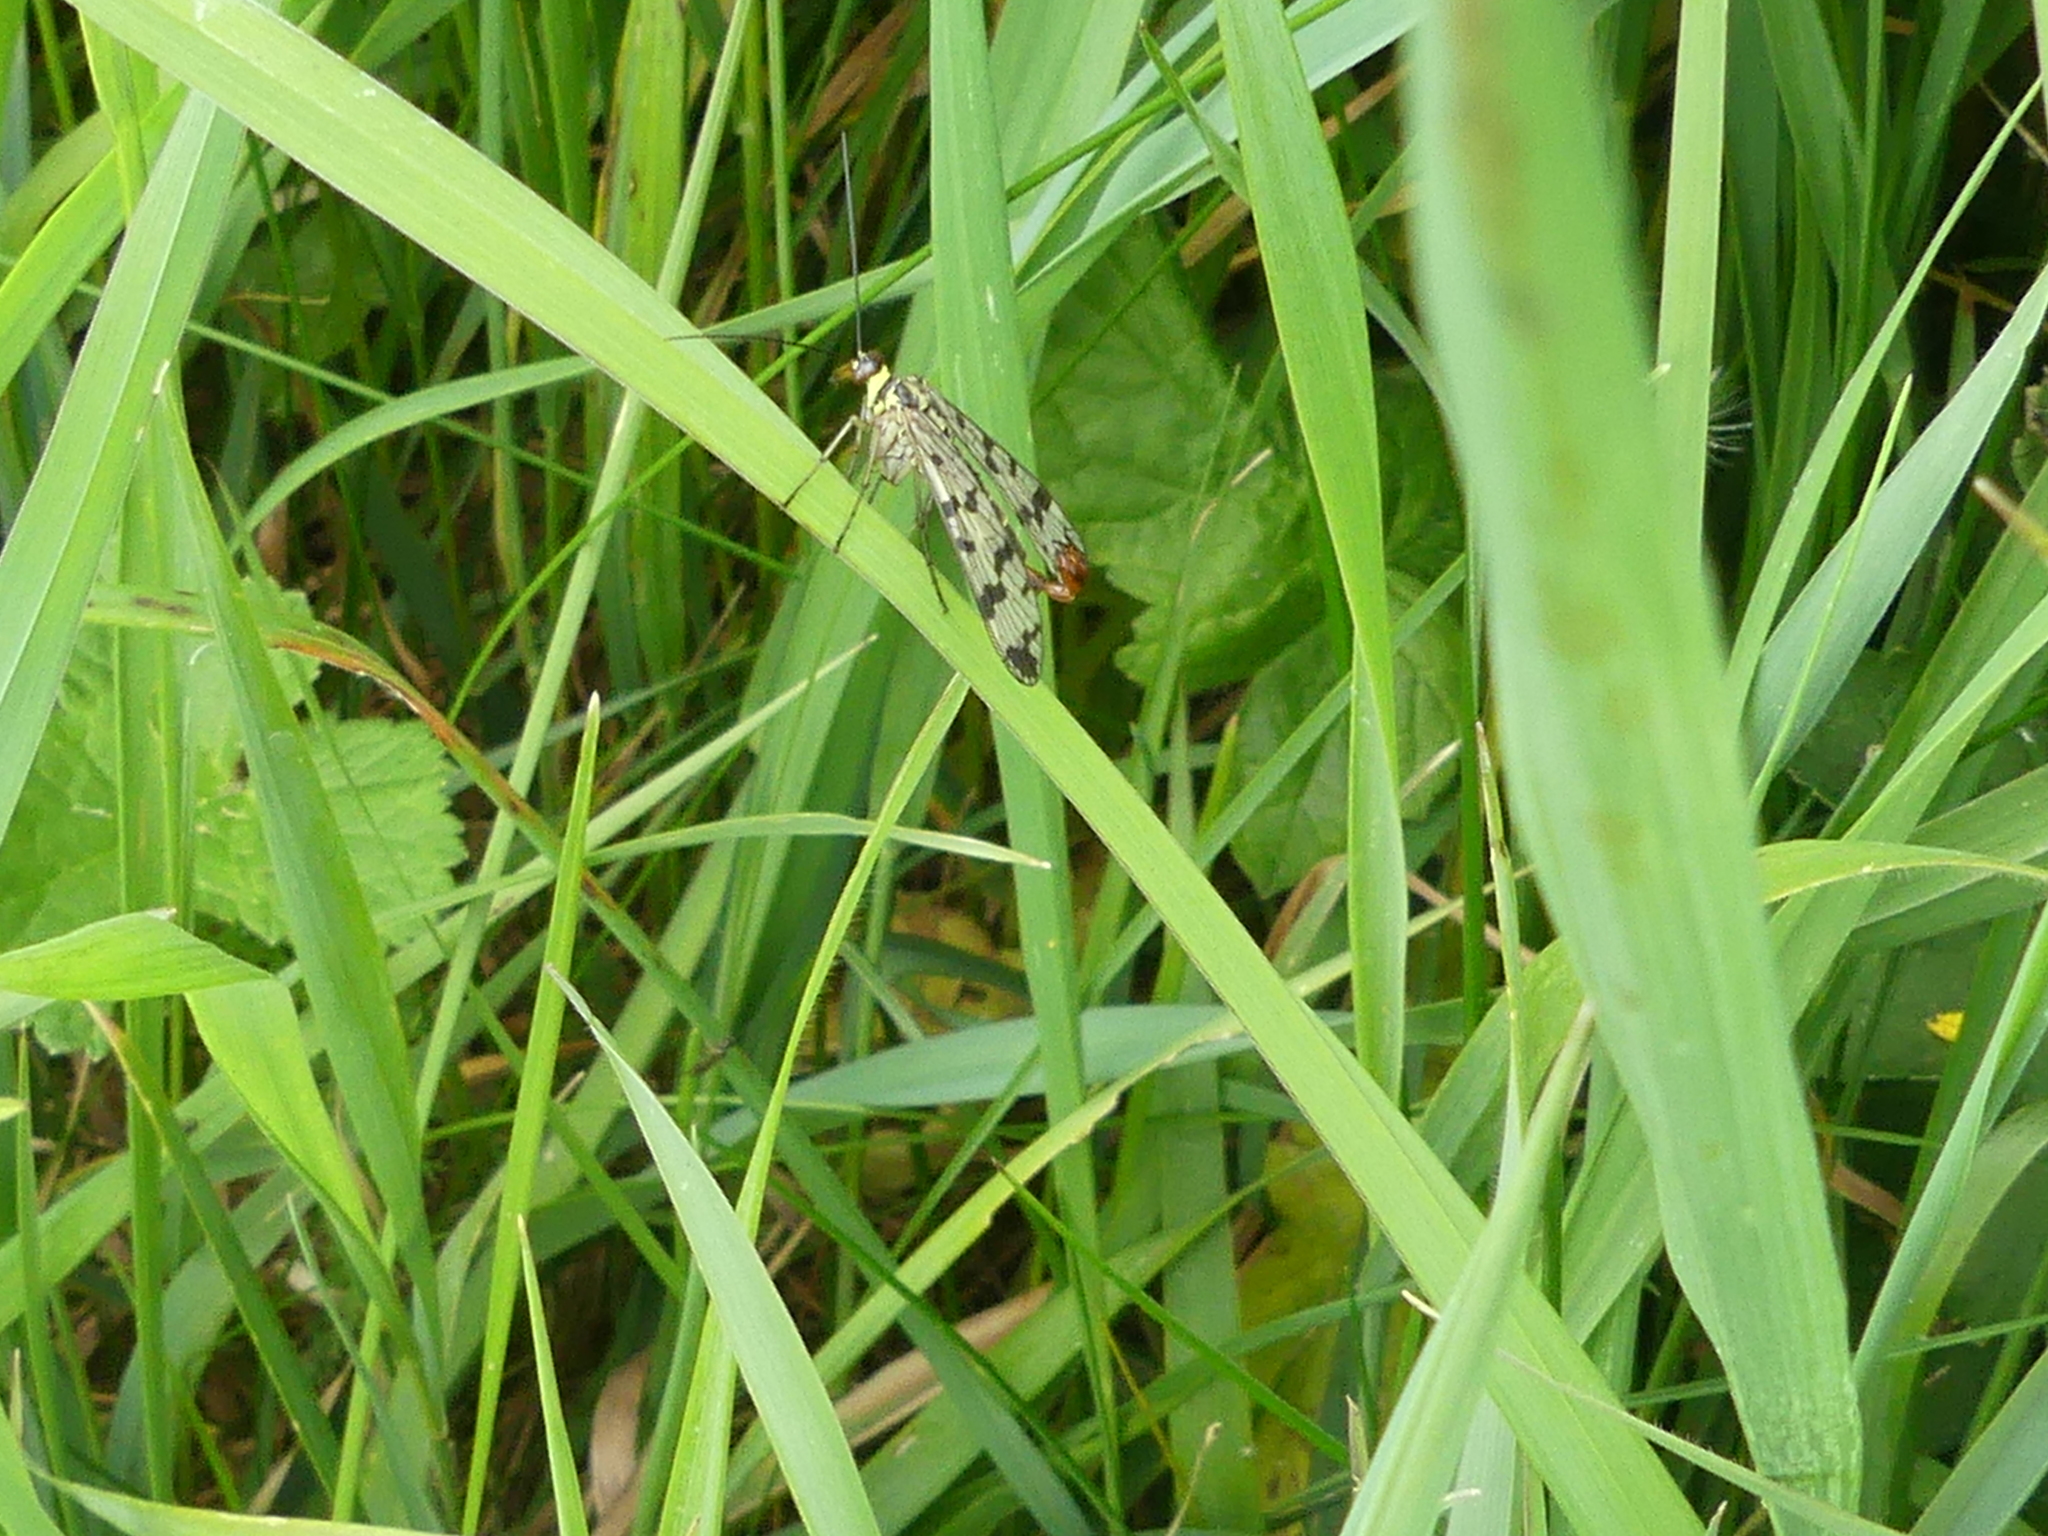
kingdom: Animalia
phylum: Arthropoda
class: Insecta
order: Mecoptera
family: Panorpidae
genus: Panorpa
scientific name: Panorpa communis
